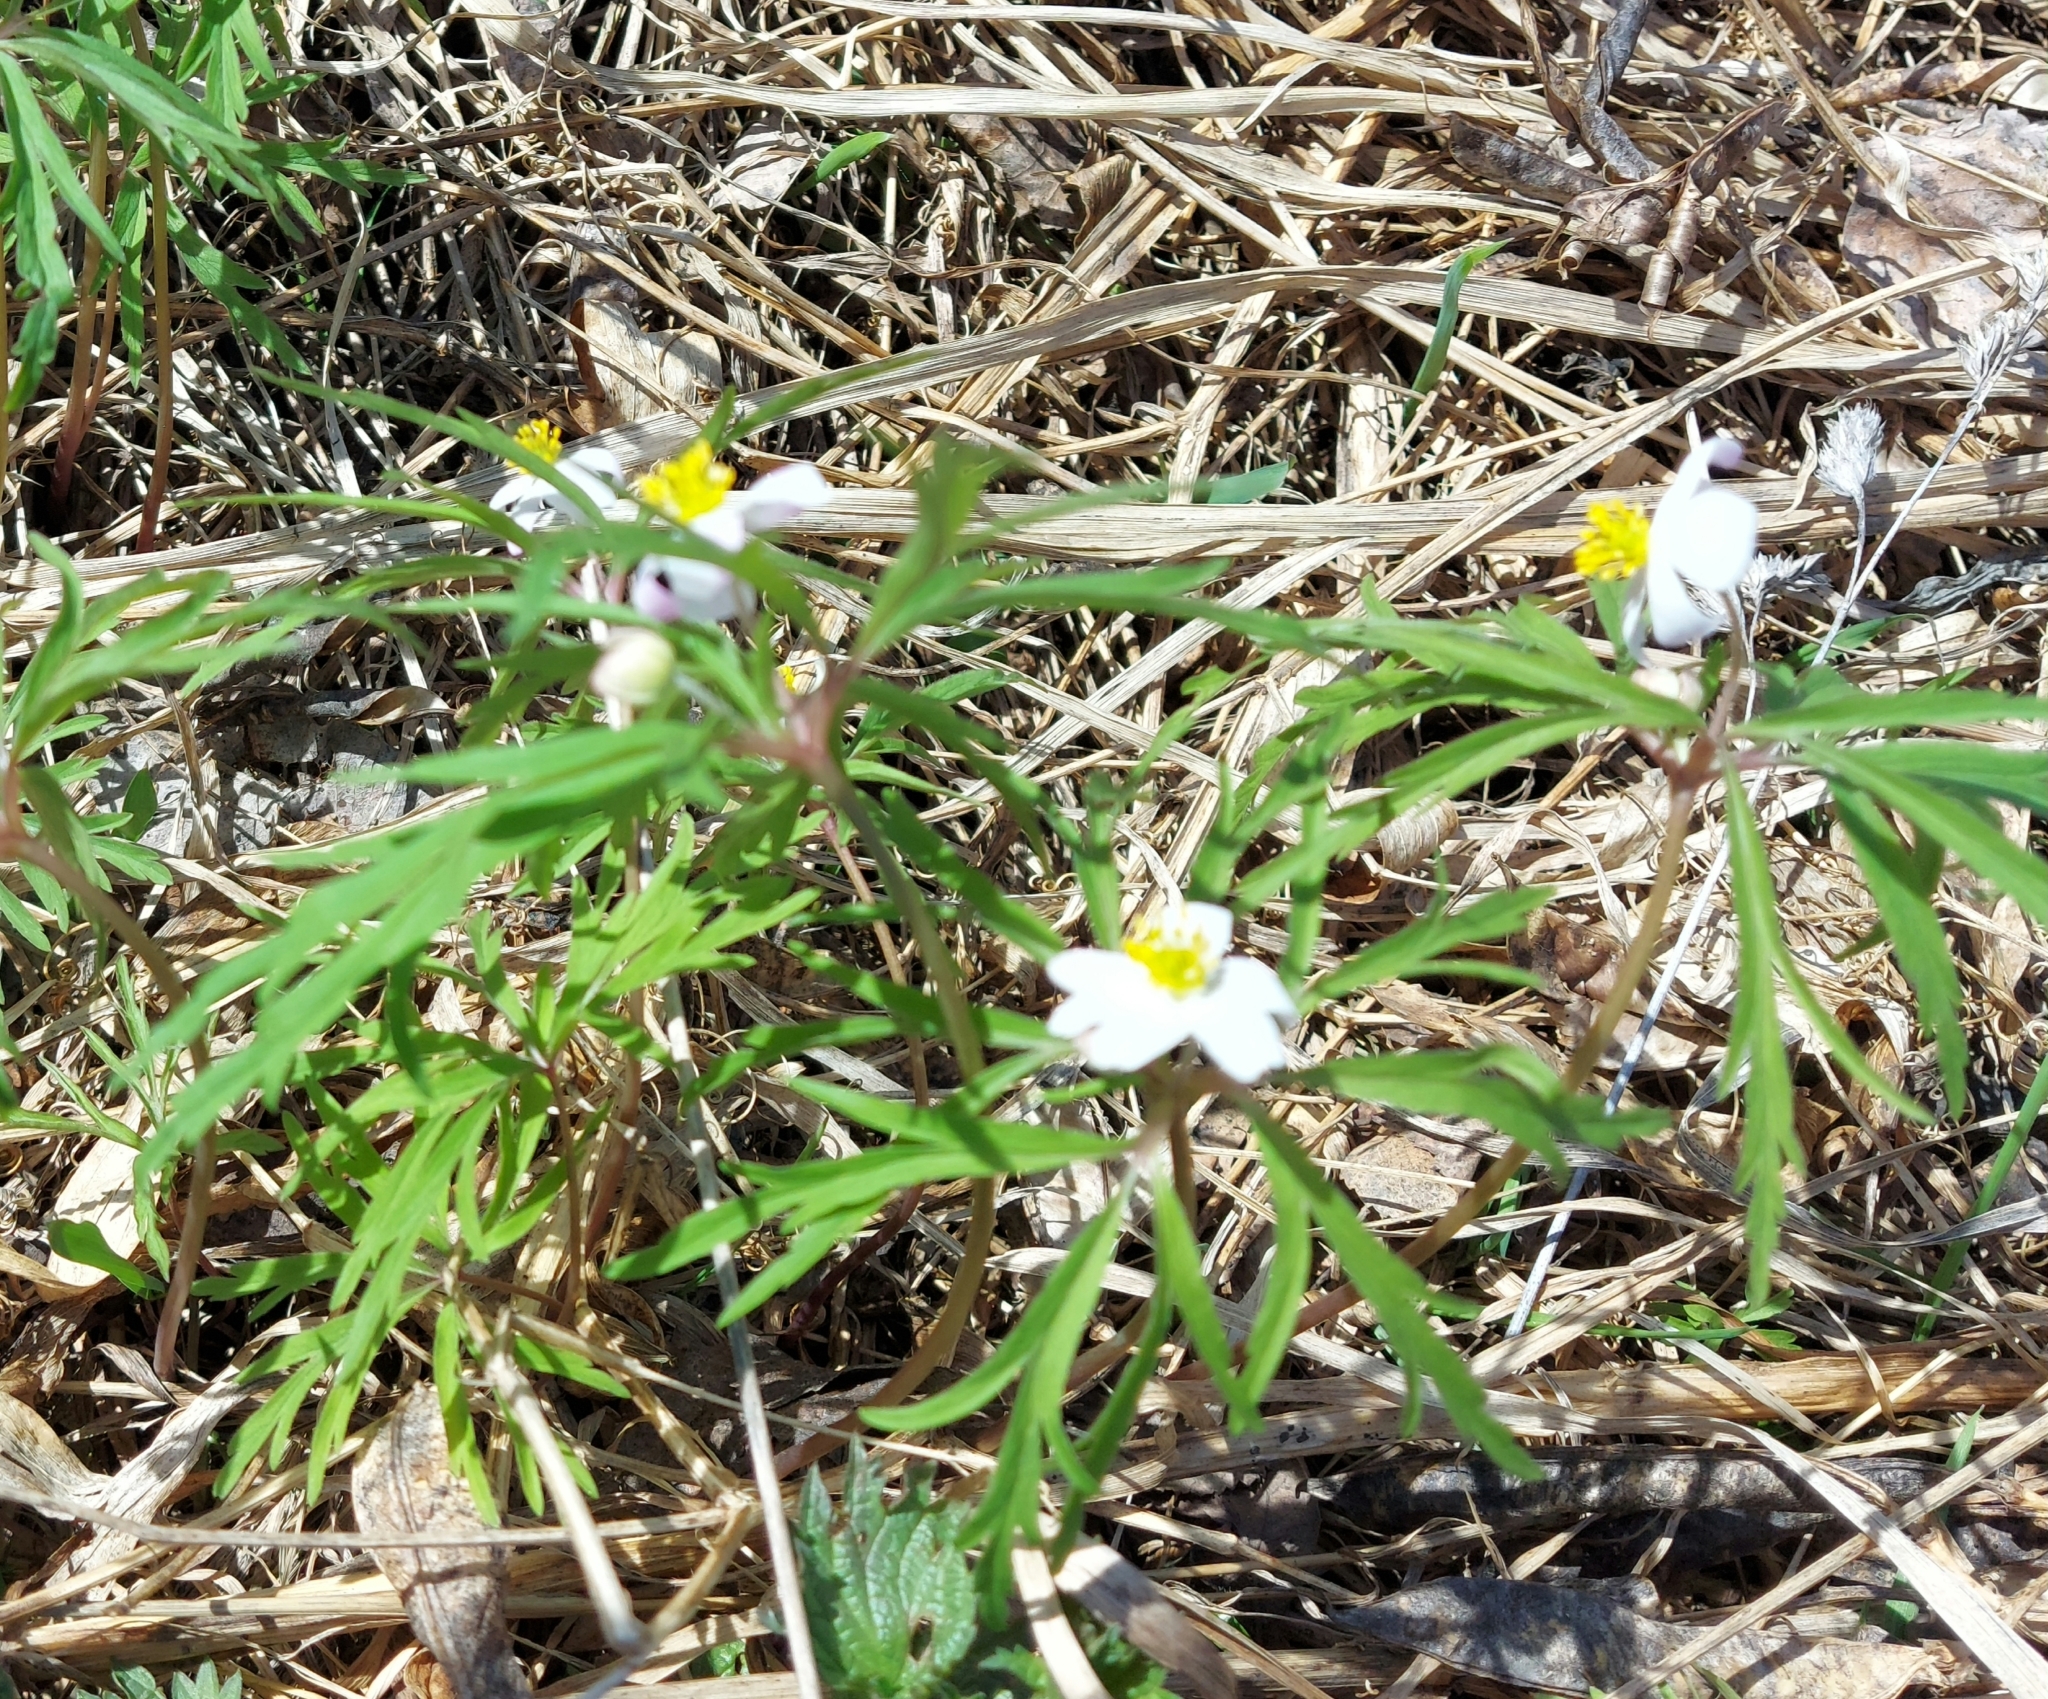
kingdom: Plantae
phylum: Tracheophyta
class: Magnoliopsida
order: Ranunculales
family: Ranunculaceae
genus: Anemone
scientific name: Anemone caerulea
